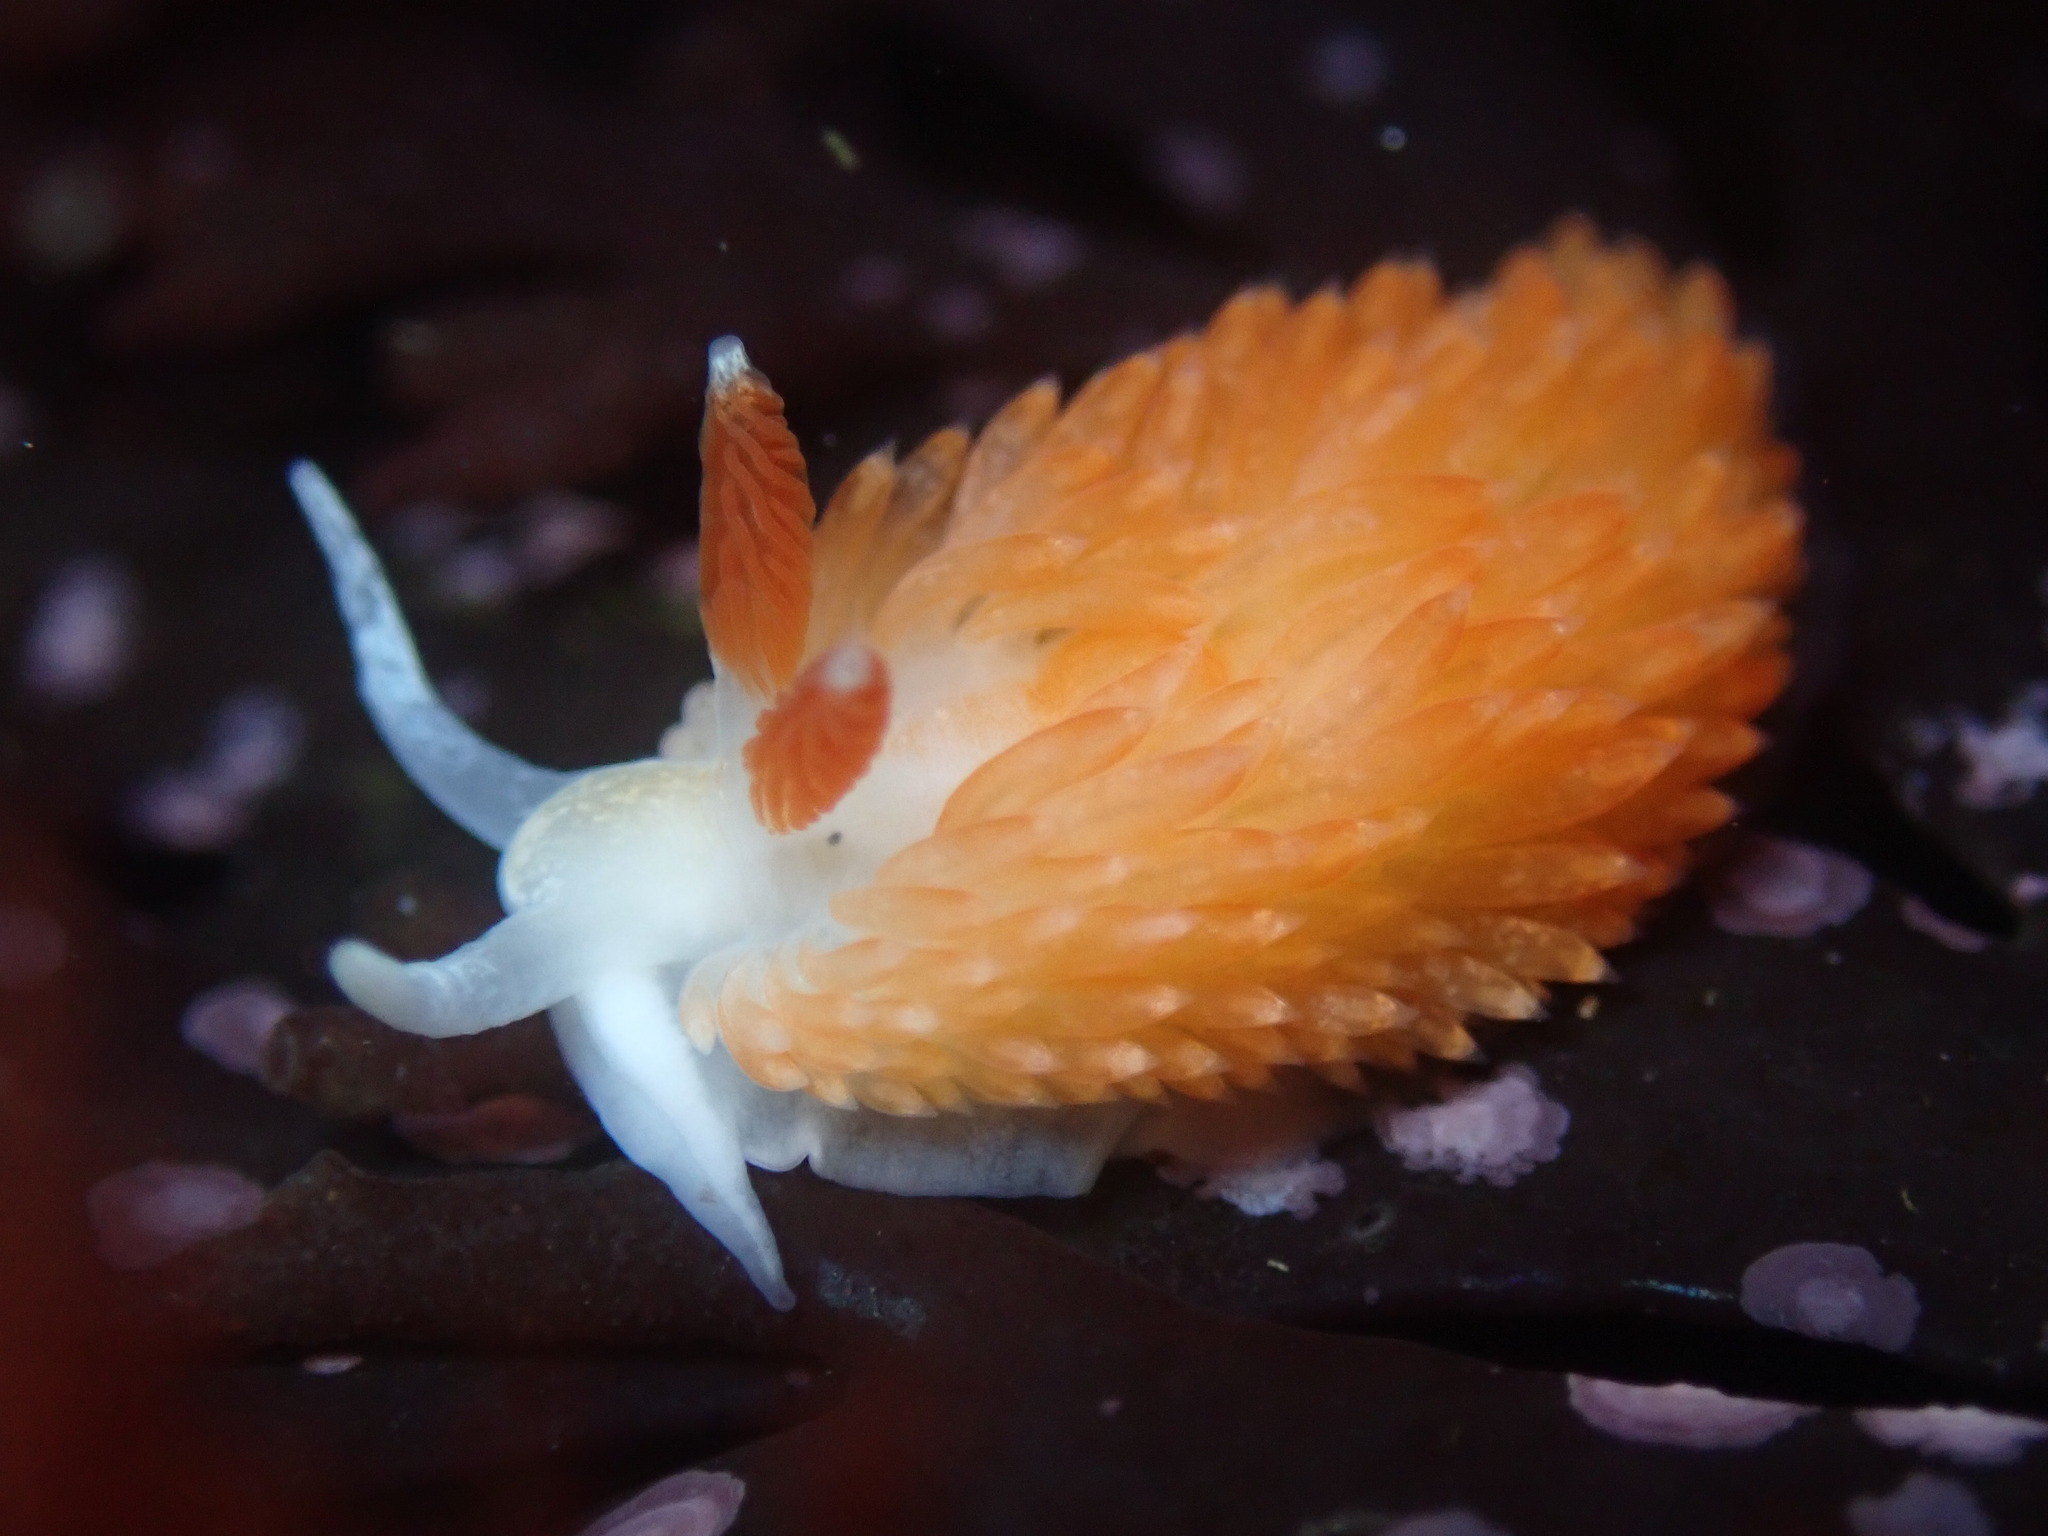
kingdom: Animalia
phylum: Mollusca
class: Gastropoda
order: Nudibranchia
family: Aeolidiidae
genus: Anteaeolidiella
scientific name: Anteaeolidiella oliviae
